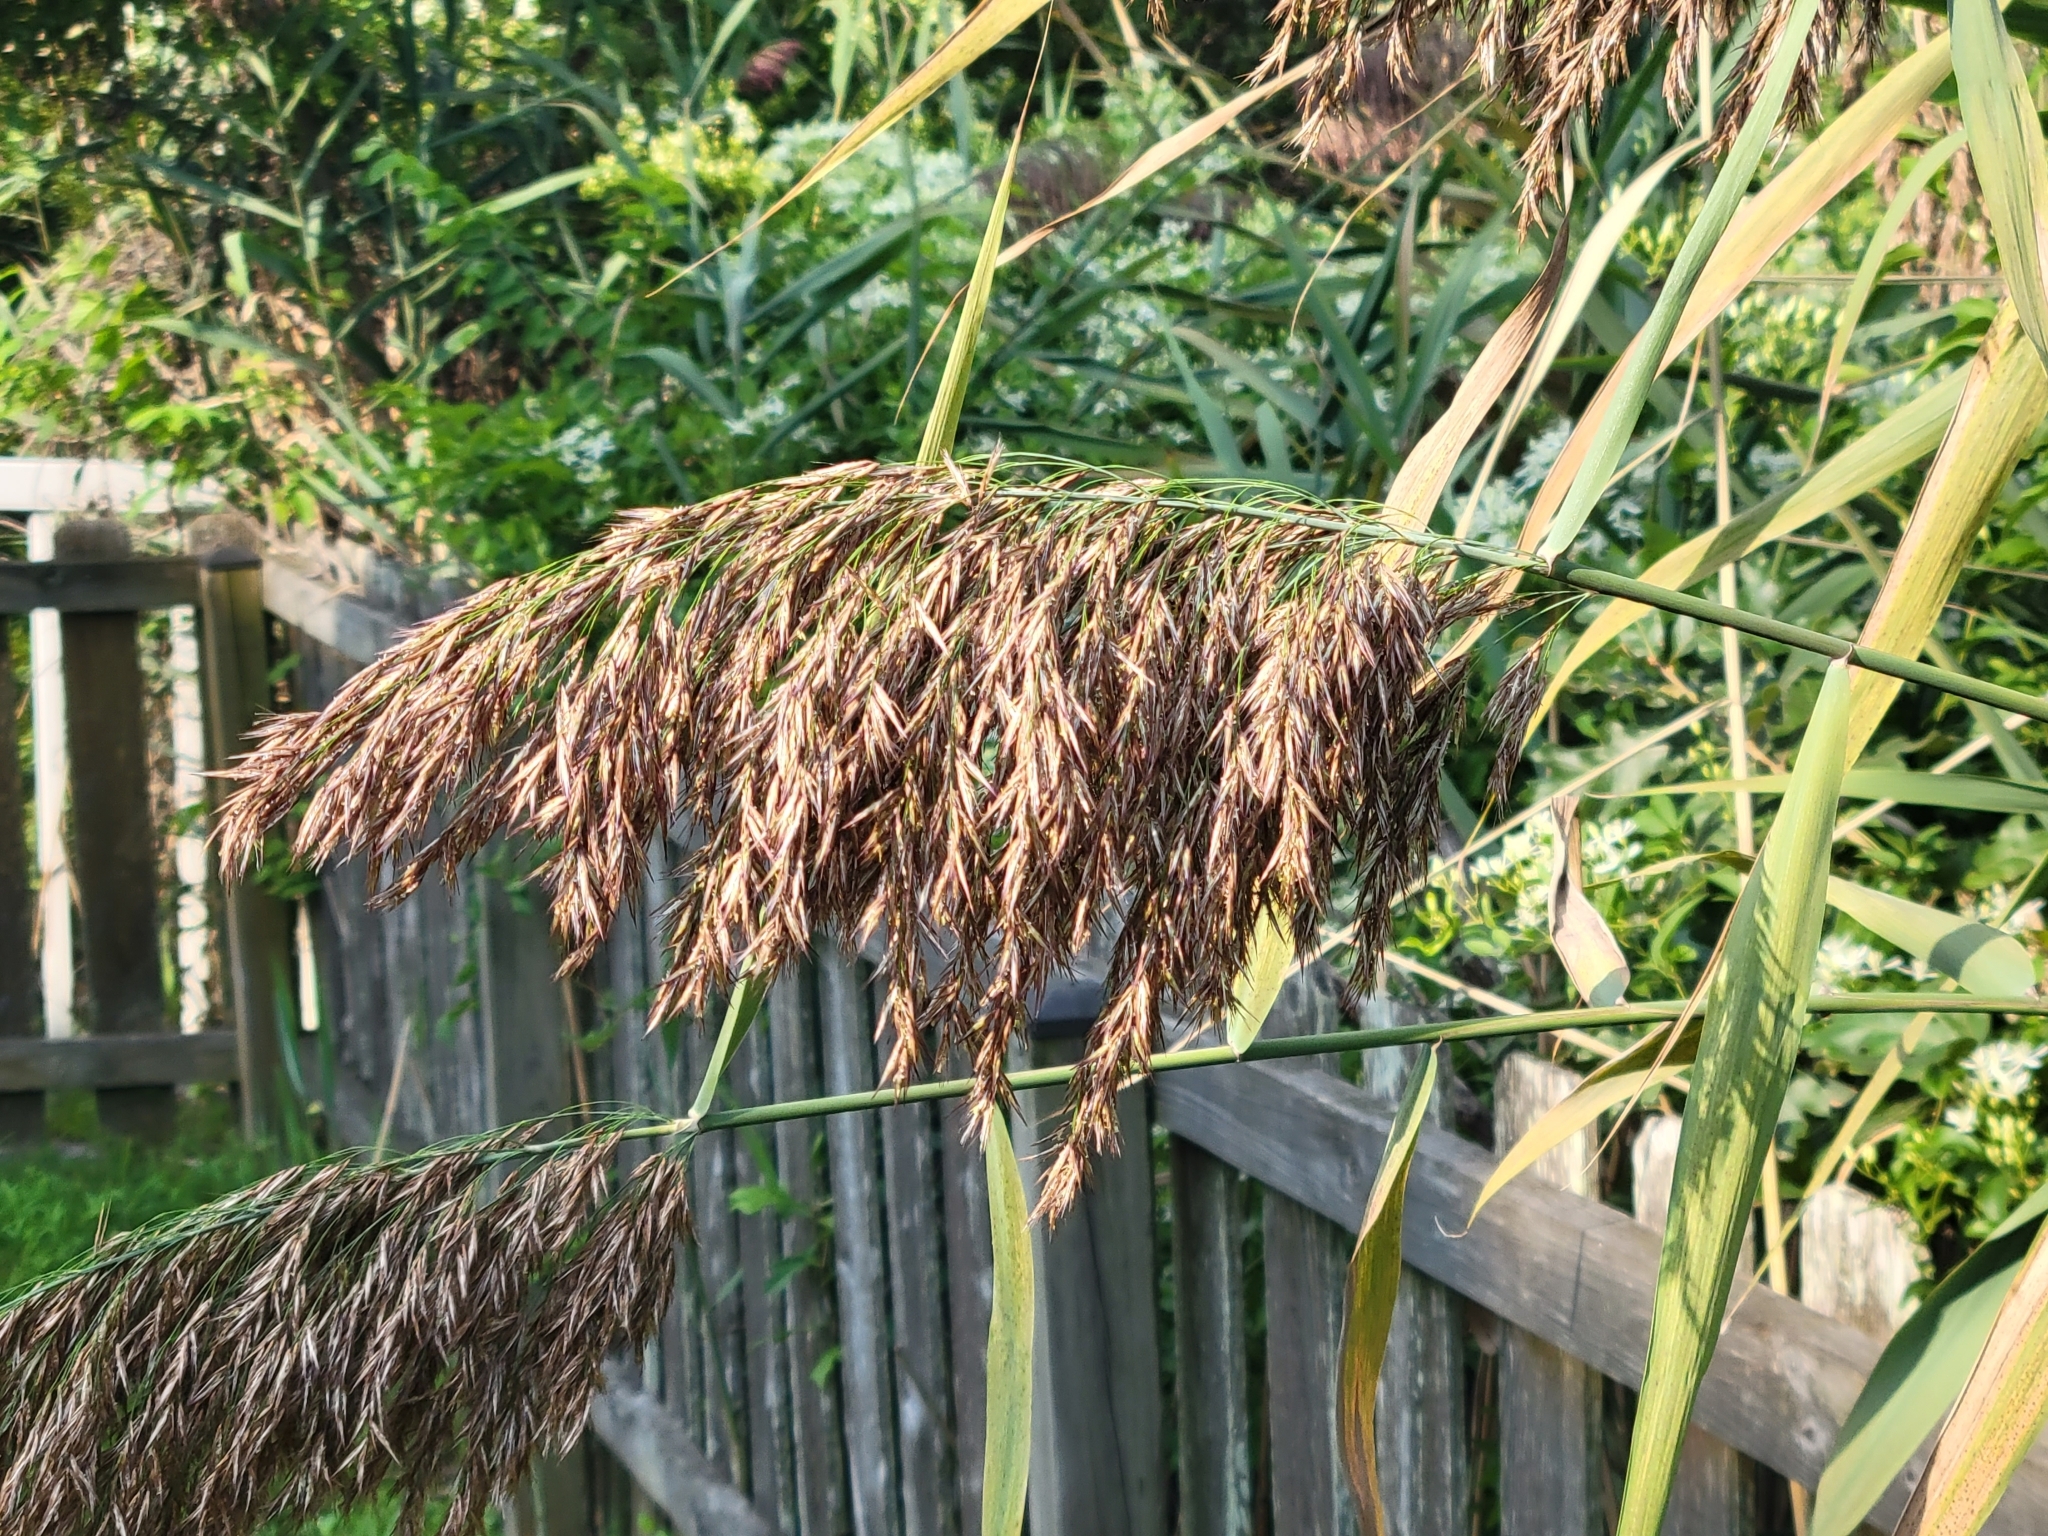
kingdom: Plantae
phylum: Tracheophyta
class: Liliopsida
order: Poales
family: Poaceae
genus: Phragmites
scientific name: Phragmites australis
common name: Common reed
